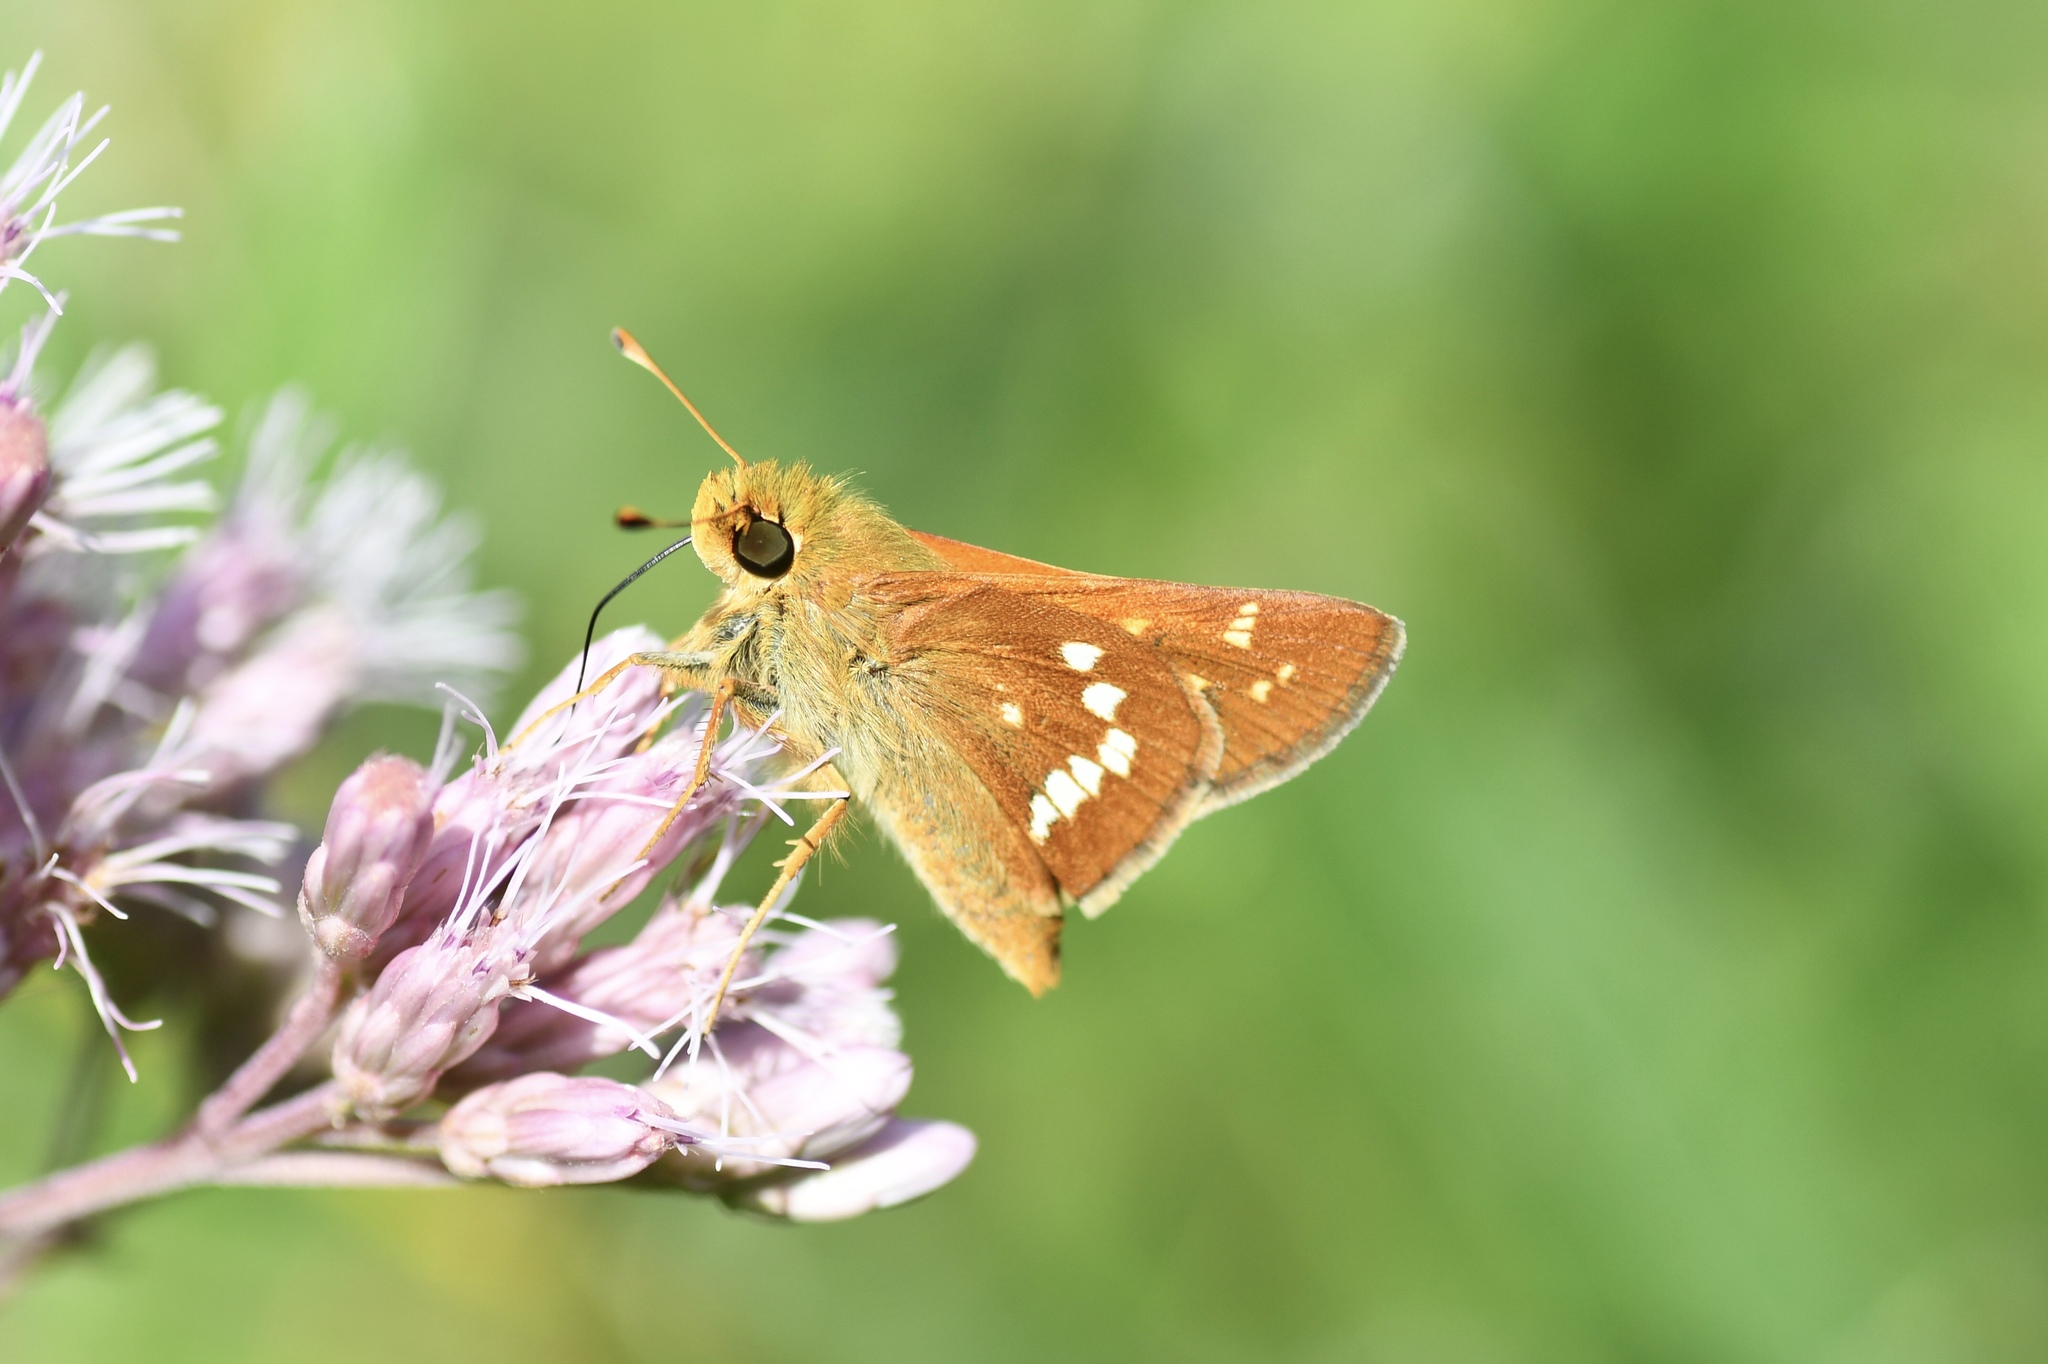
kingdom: Animalia
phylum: Arthropoda
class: Insecta
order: Lepidoptera
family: Hesperiidae
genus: Hesperia
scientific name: Hesperia leonardus
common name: Leonard's skipper
